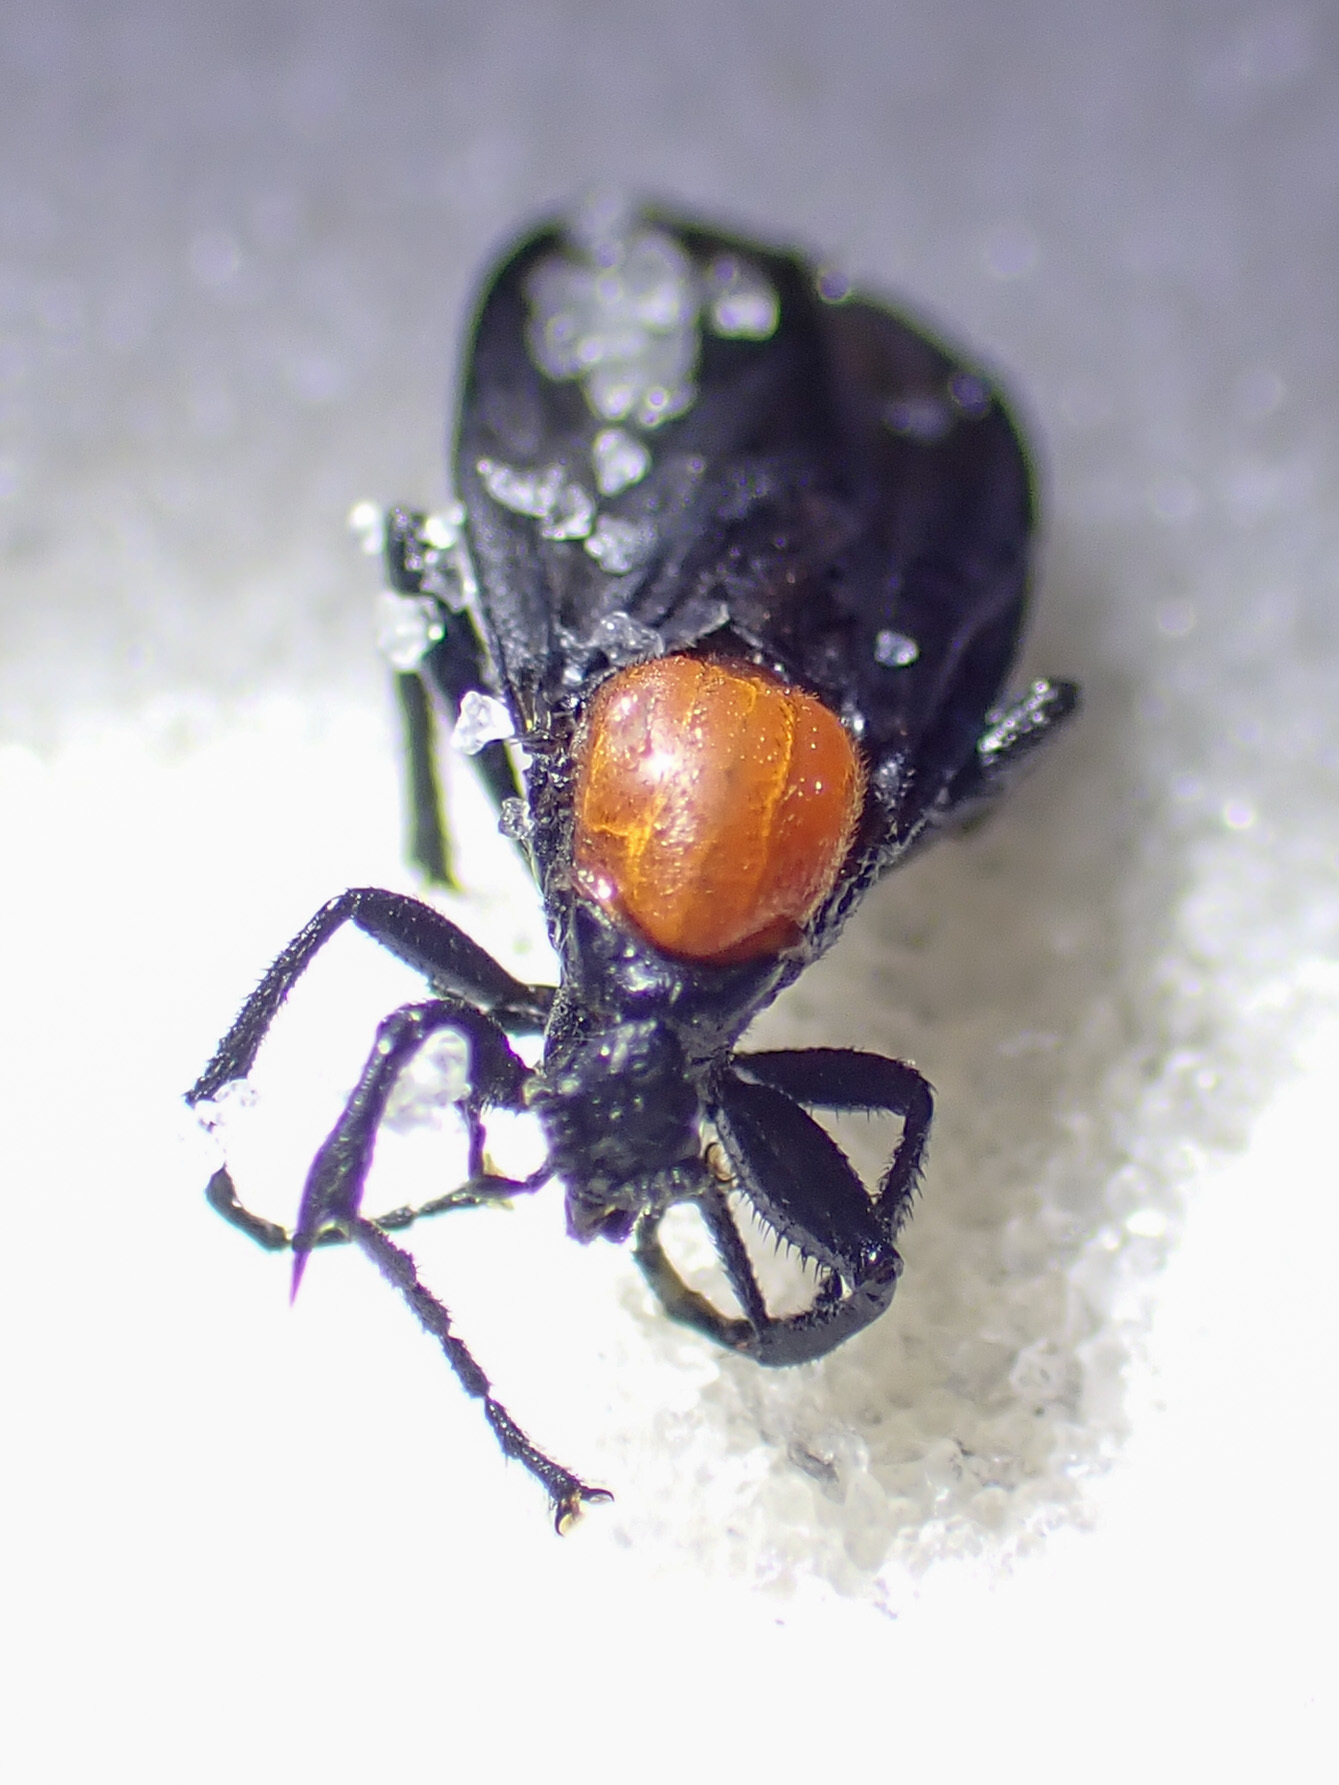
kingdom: Animalia
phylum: Arthropoda
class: Insecta
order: Diptera
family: Bibionidae
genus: Bibio
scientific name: Bibio superfluus
